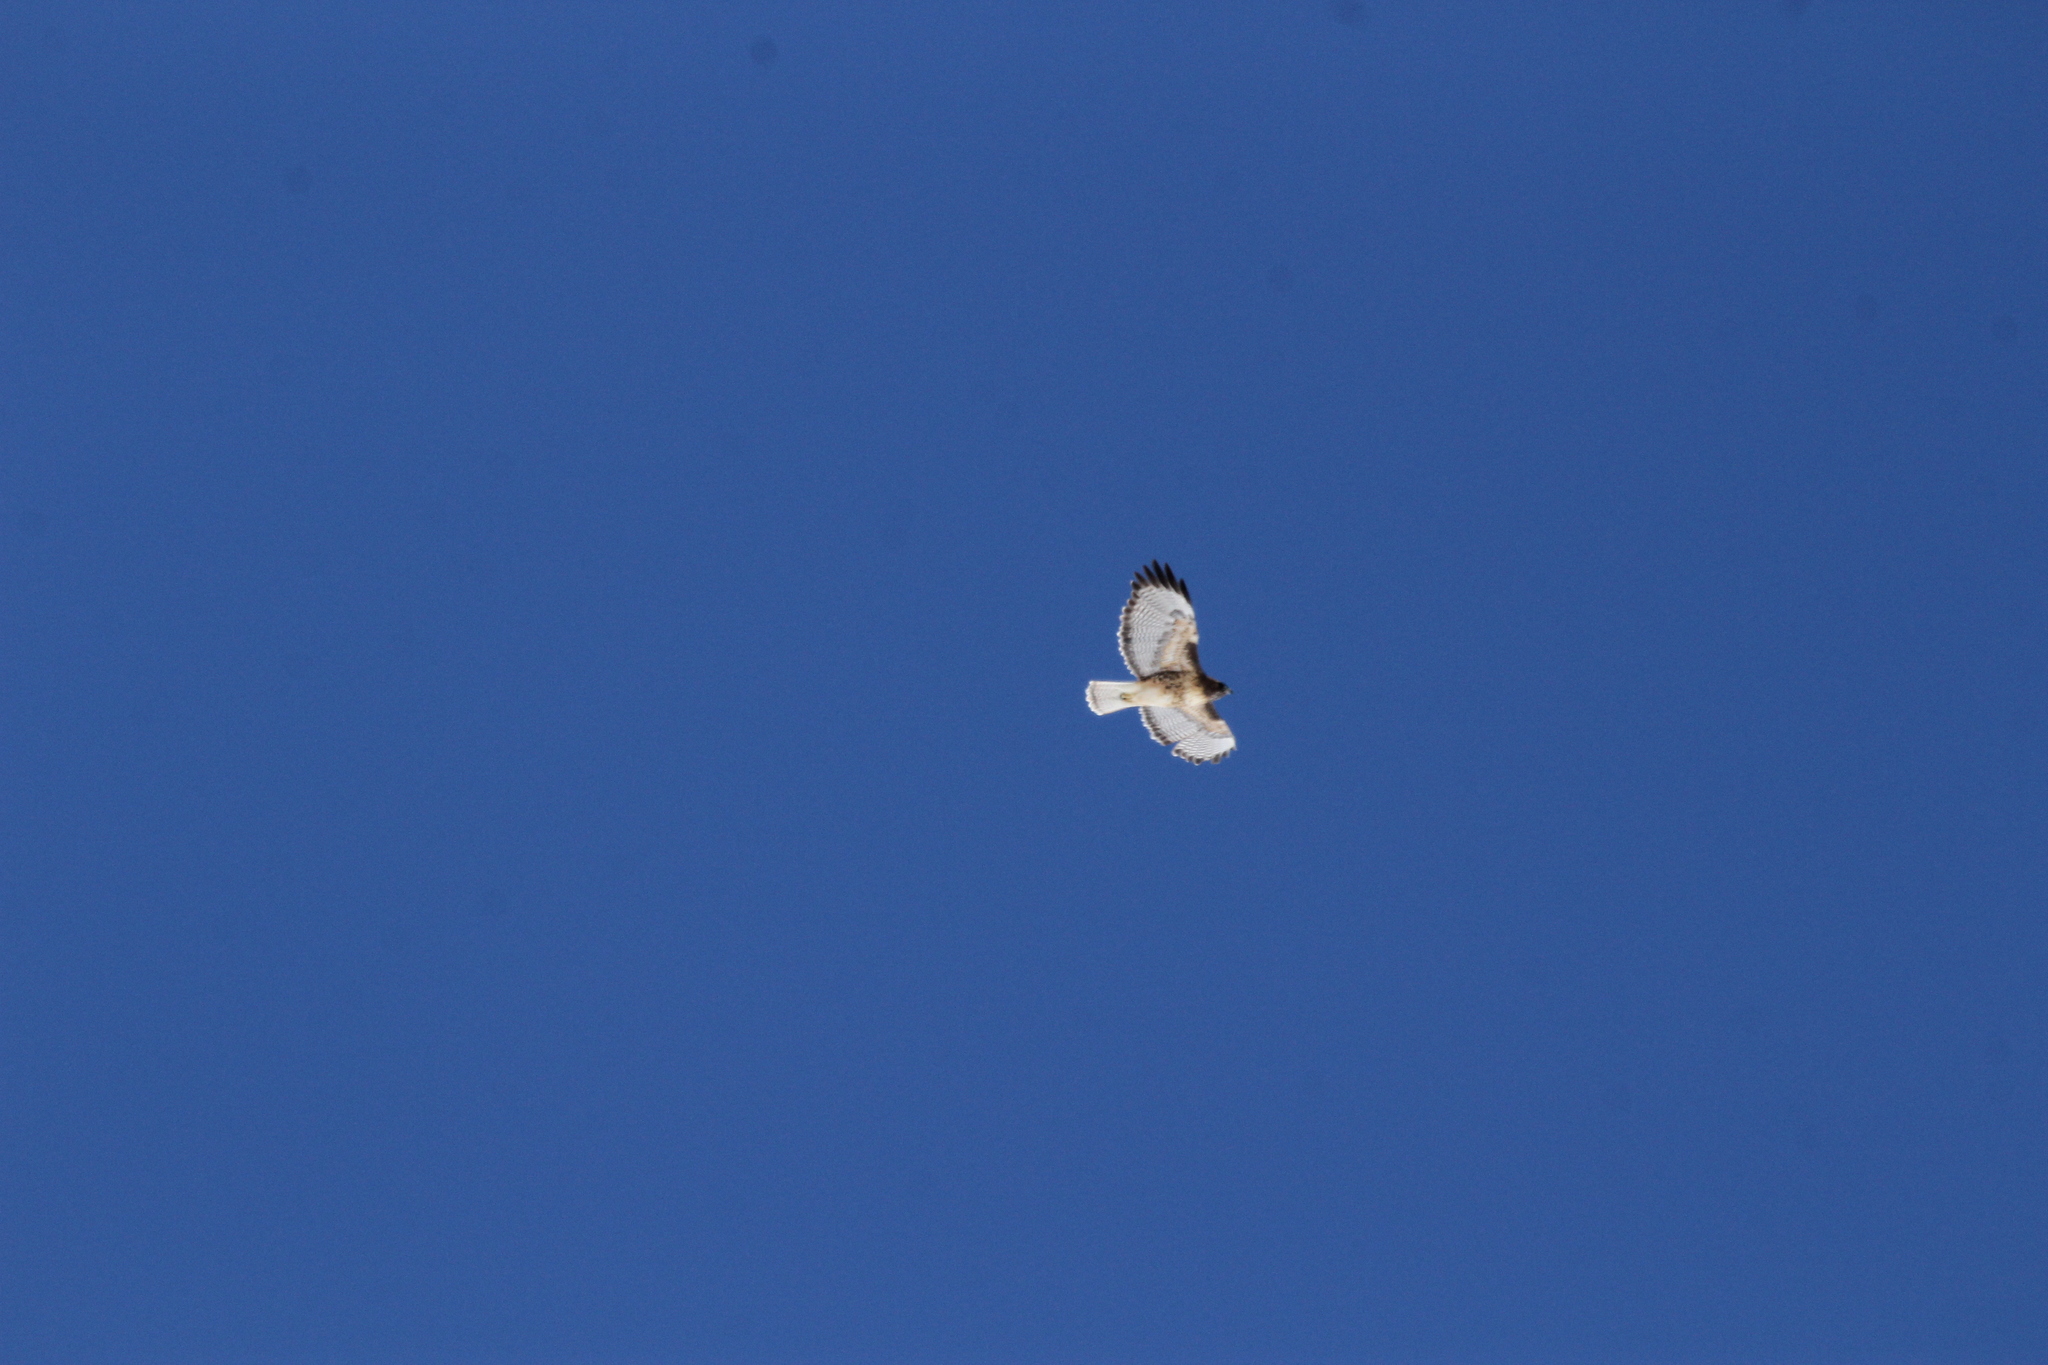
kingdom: Animalia
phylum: Chordata
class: Aves
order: Accipitriformes
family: Accipitridae
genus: Buteo
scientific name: Buteo jamaicensis
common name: Red-tailed hawk
